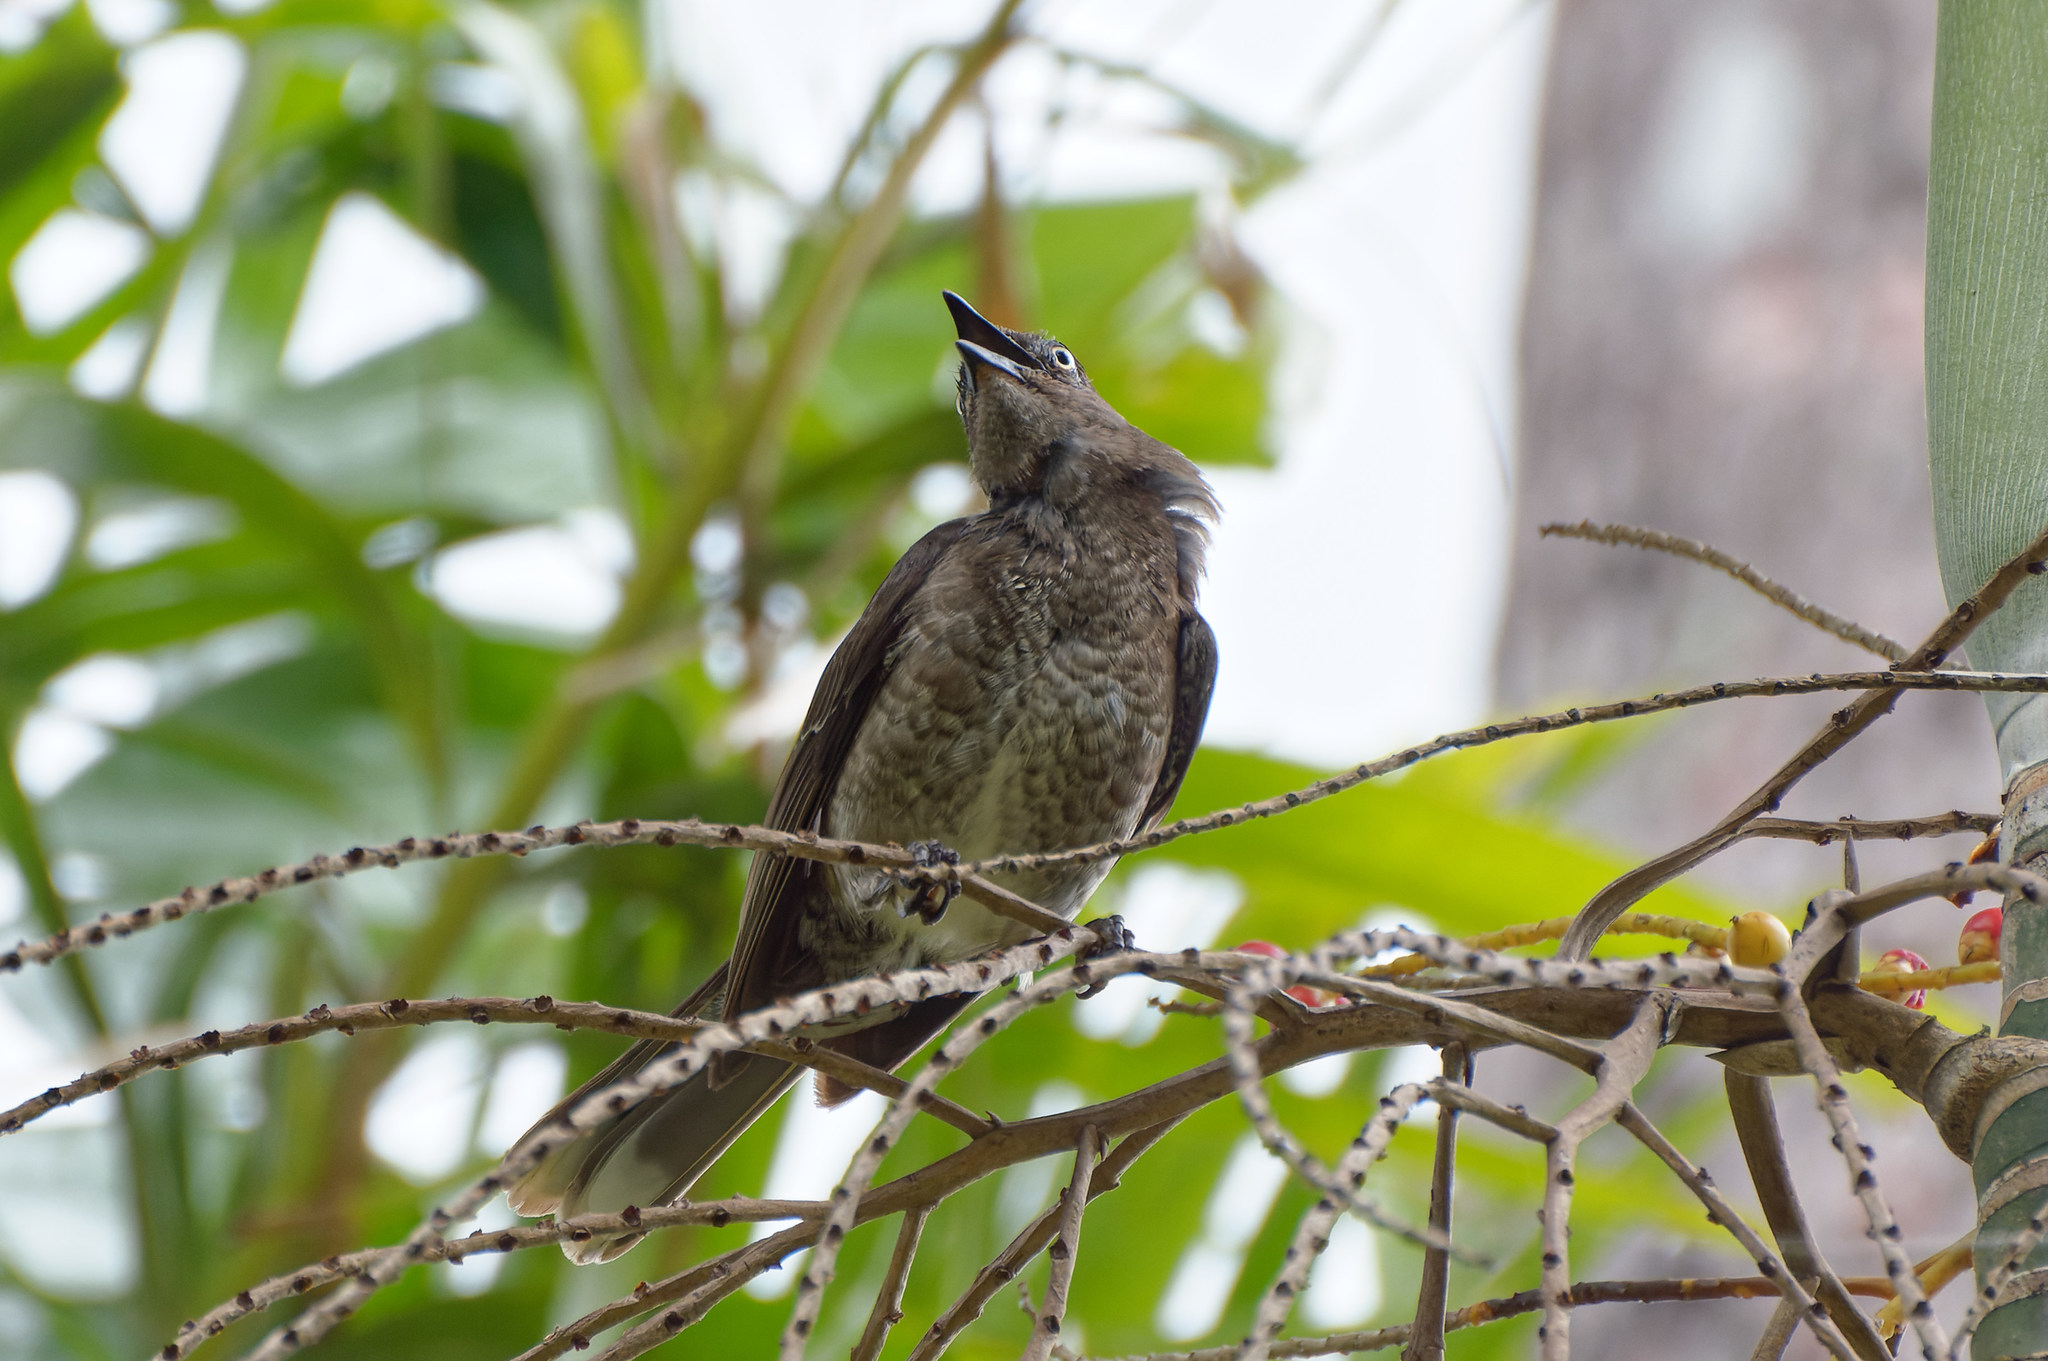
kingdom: Animalia
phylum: Chordata
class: Aves
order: Passeriformes
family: Mimidae
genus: Allenia
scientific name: Allenia fusca
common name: Scaly-breasted thrasher
